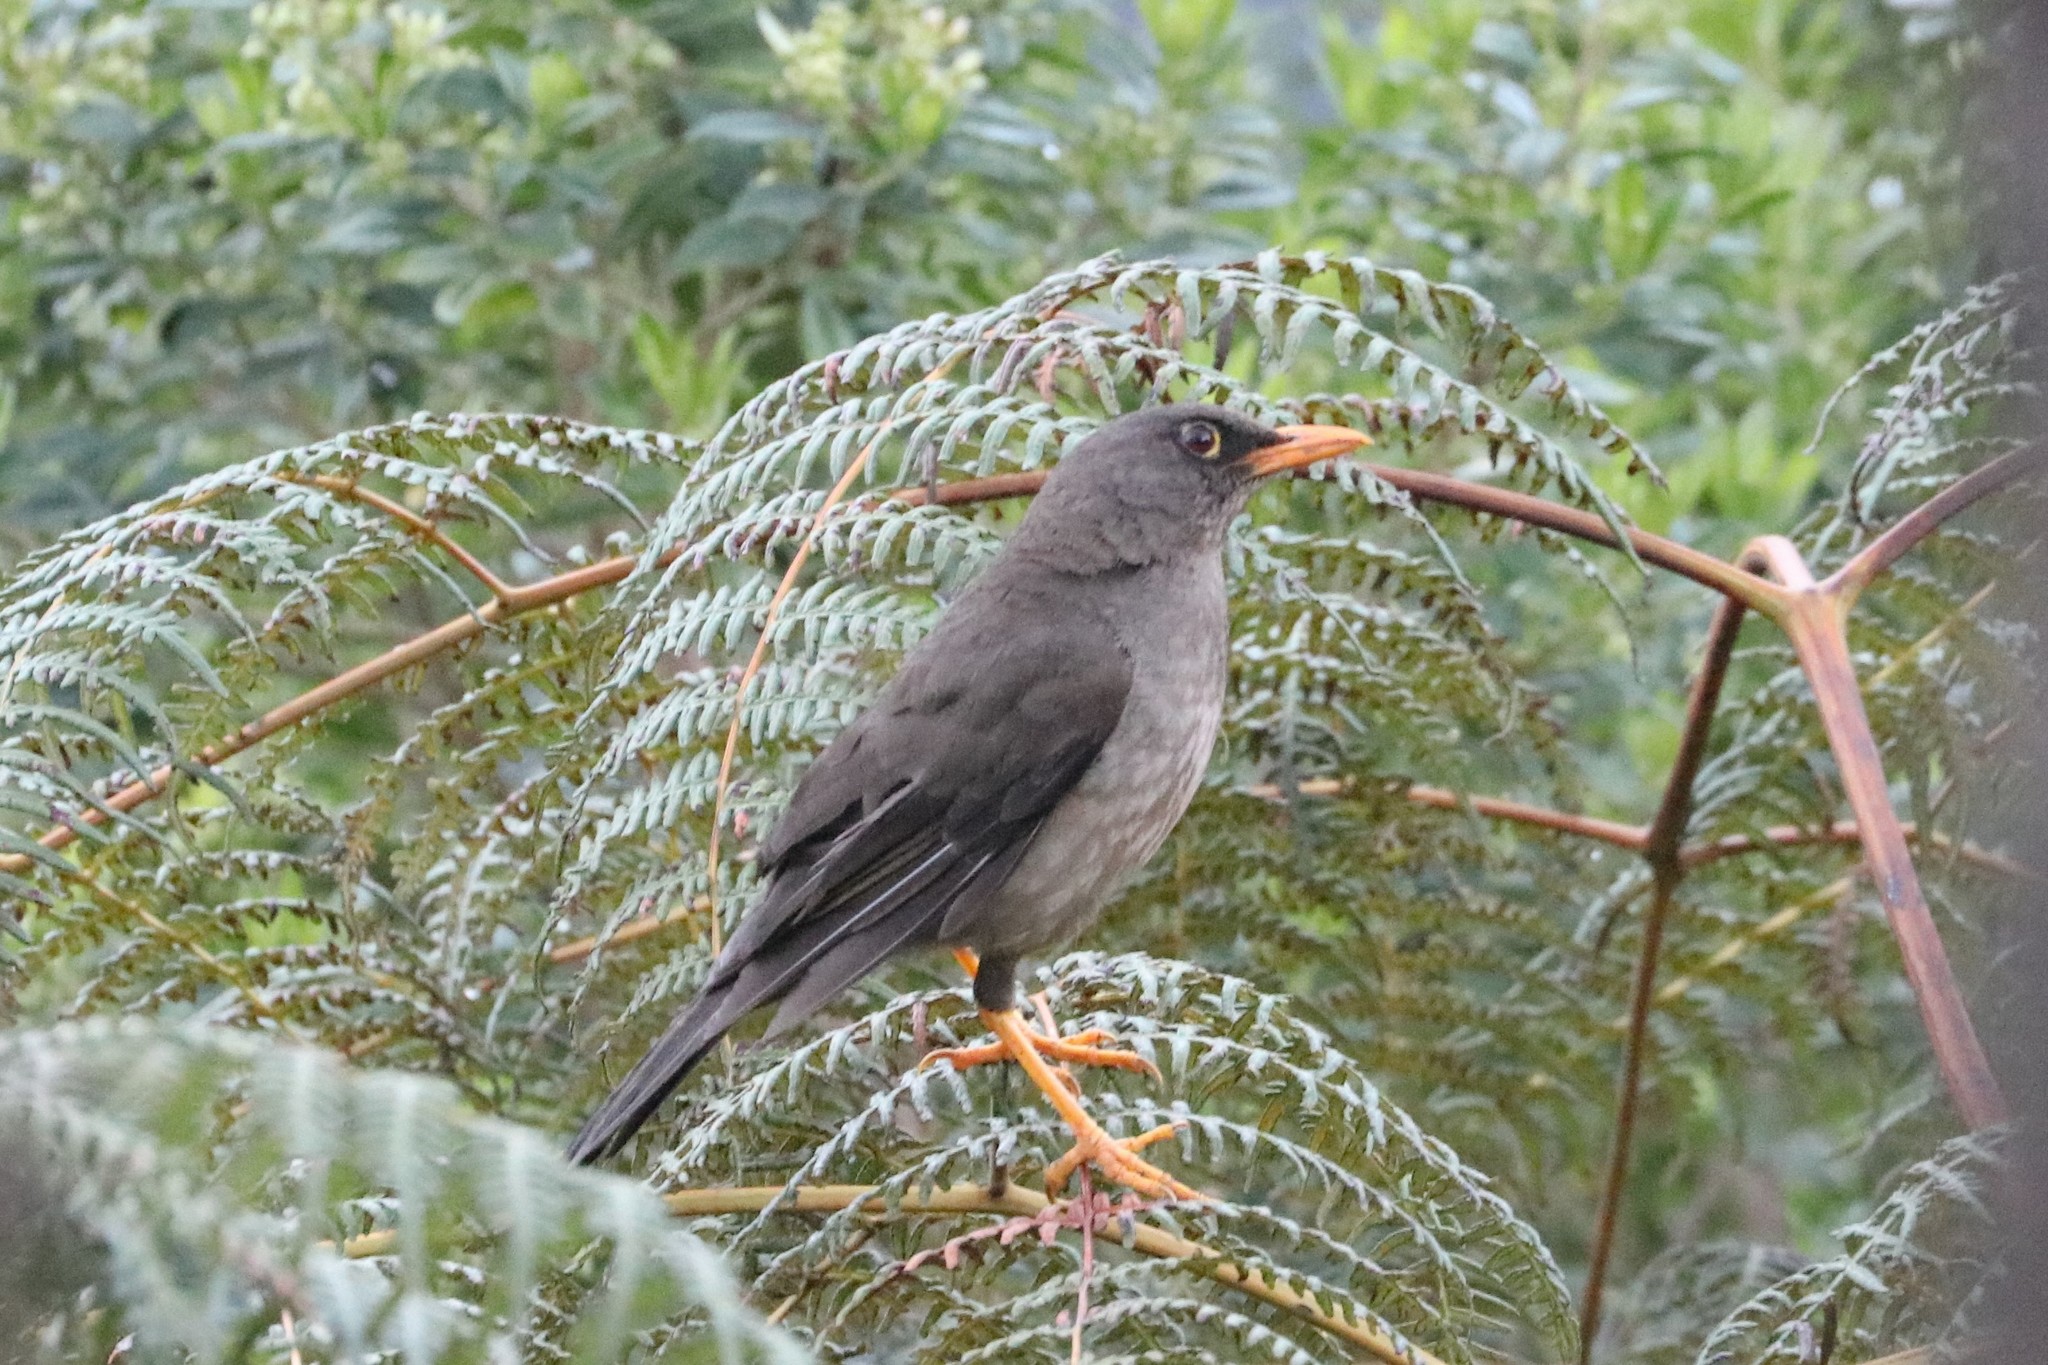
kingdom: Animalia
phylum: Chordata
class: Aves
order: Passeriformes
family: Turdidae
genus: Turdus
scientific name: Turdus fuscater
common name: Great thrush
